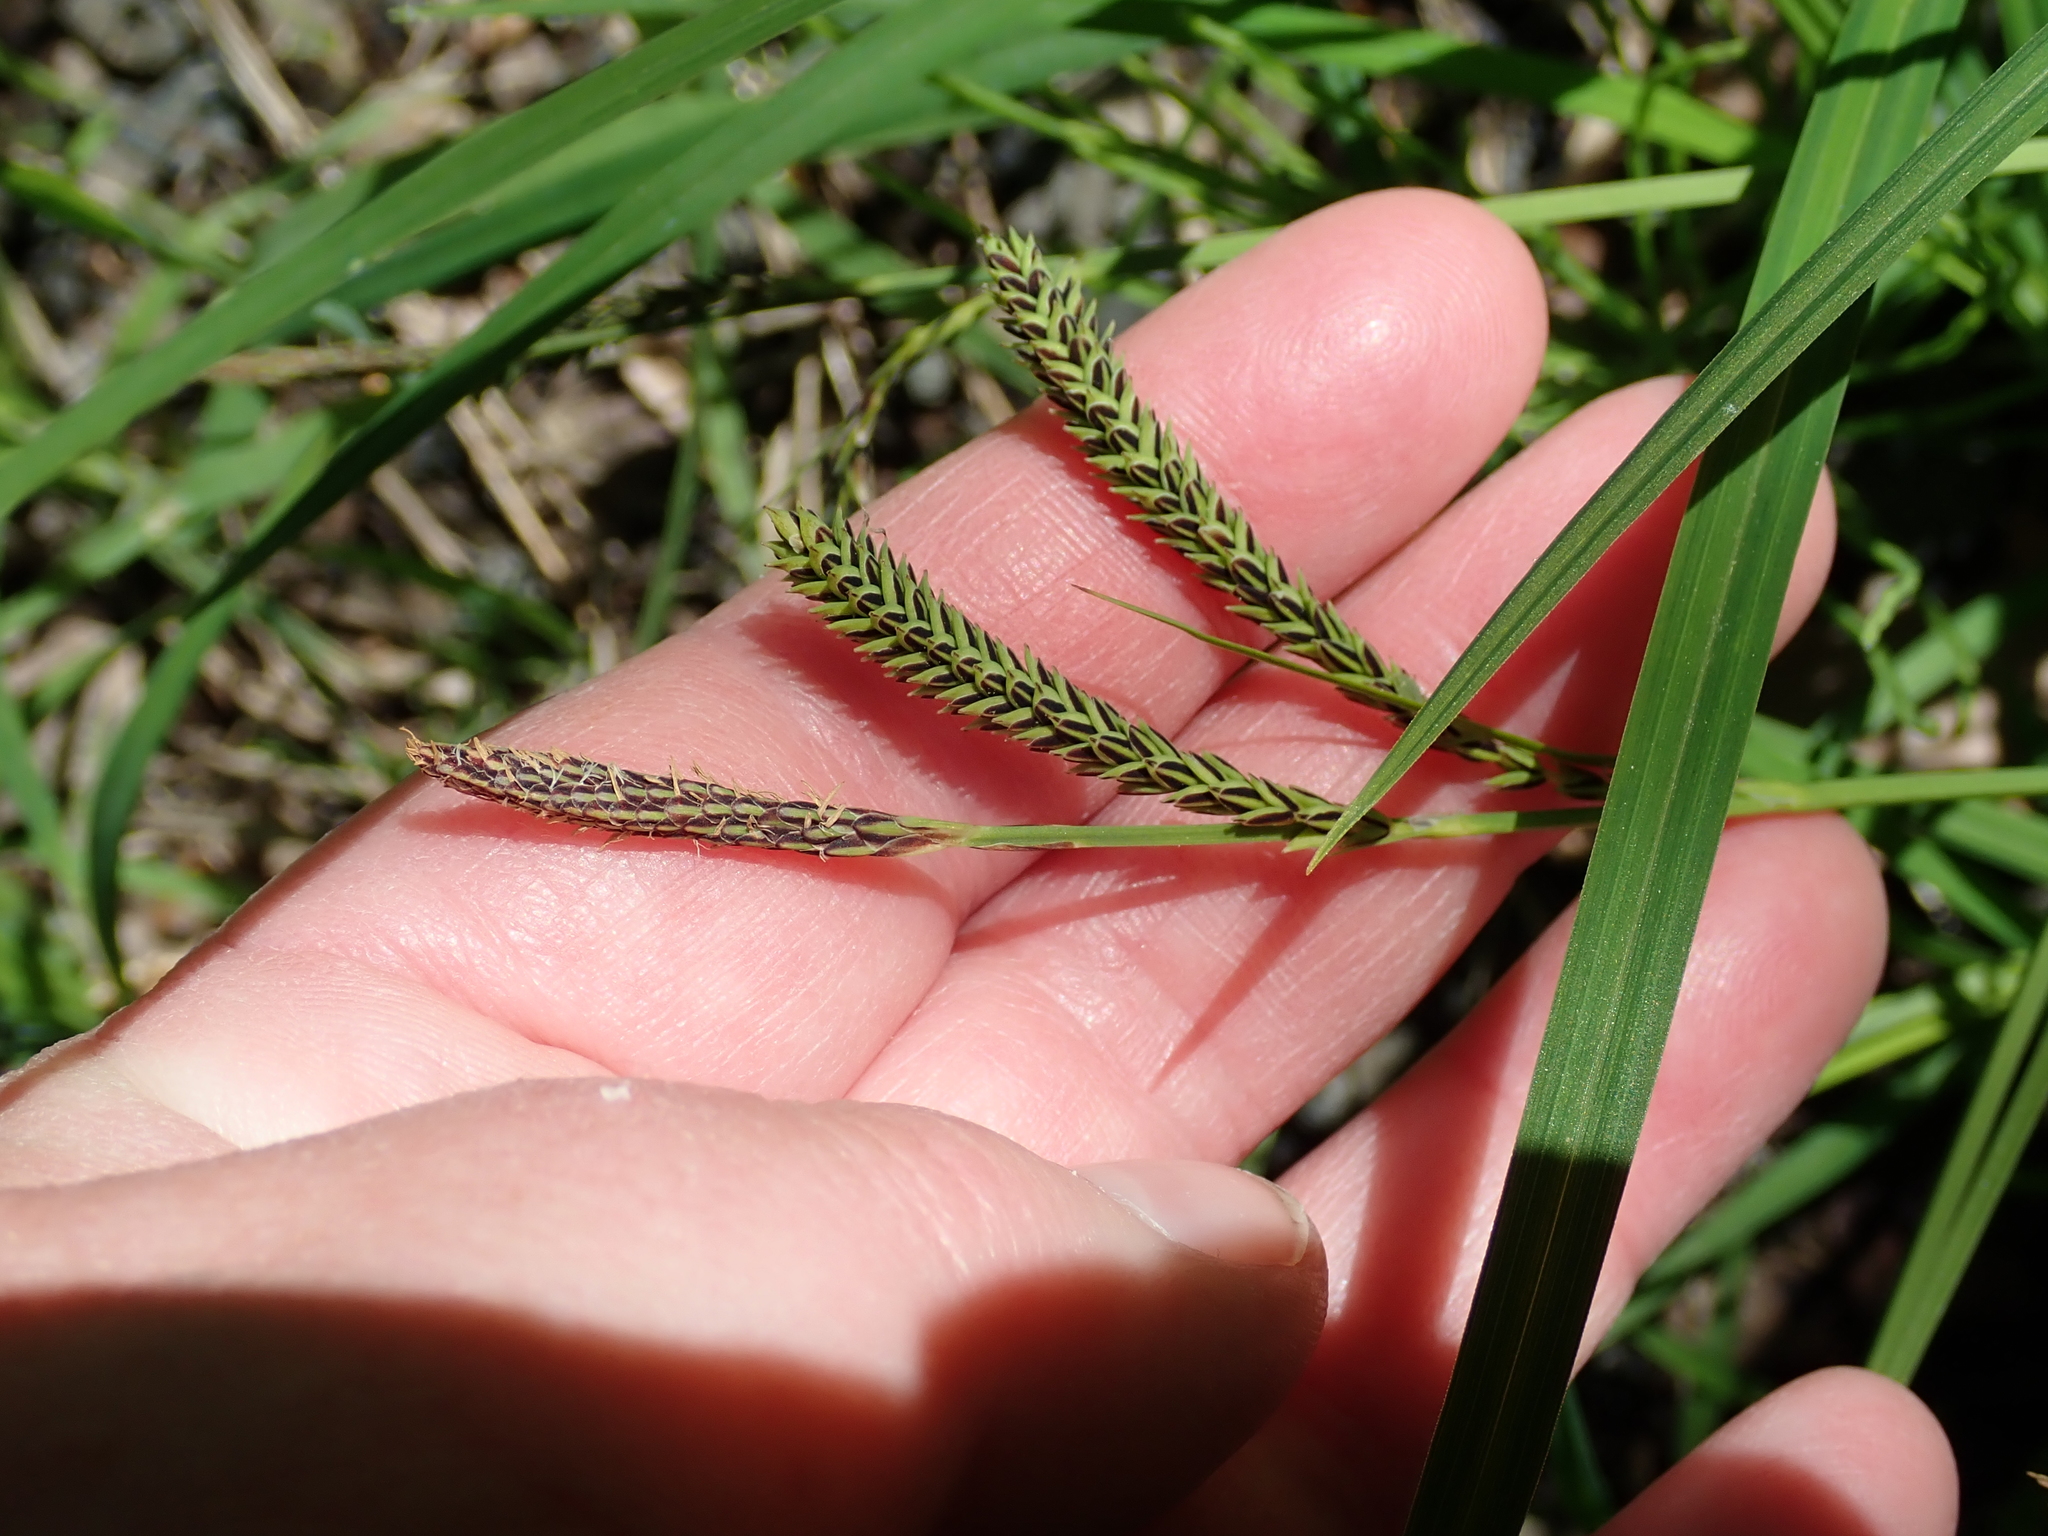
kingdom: Plantae
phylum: Tracheophyta
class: Liliopsida
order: Poales
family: Cyperaceae
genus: Carex
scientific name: Carex torta
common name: Twisted sedge
